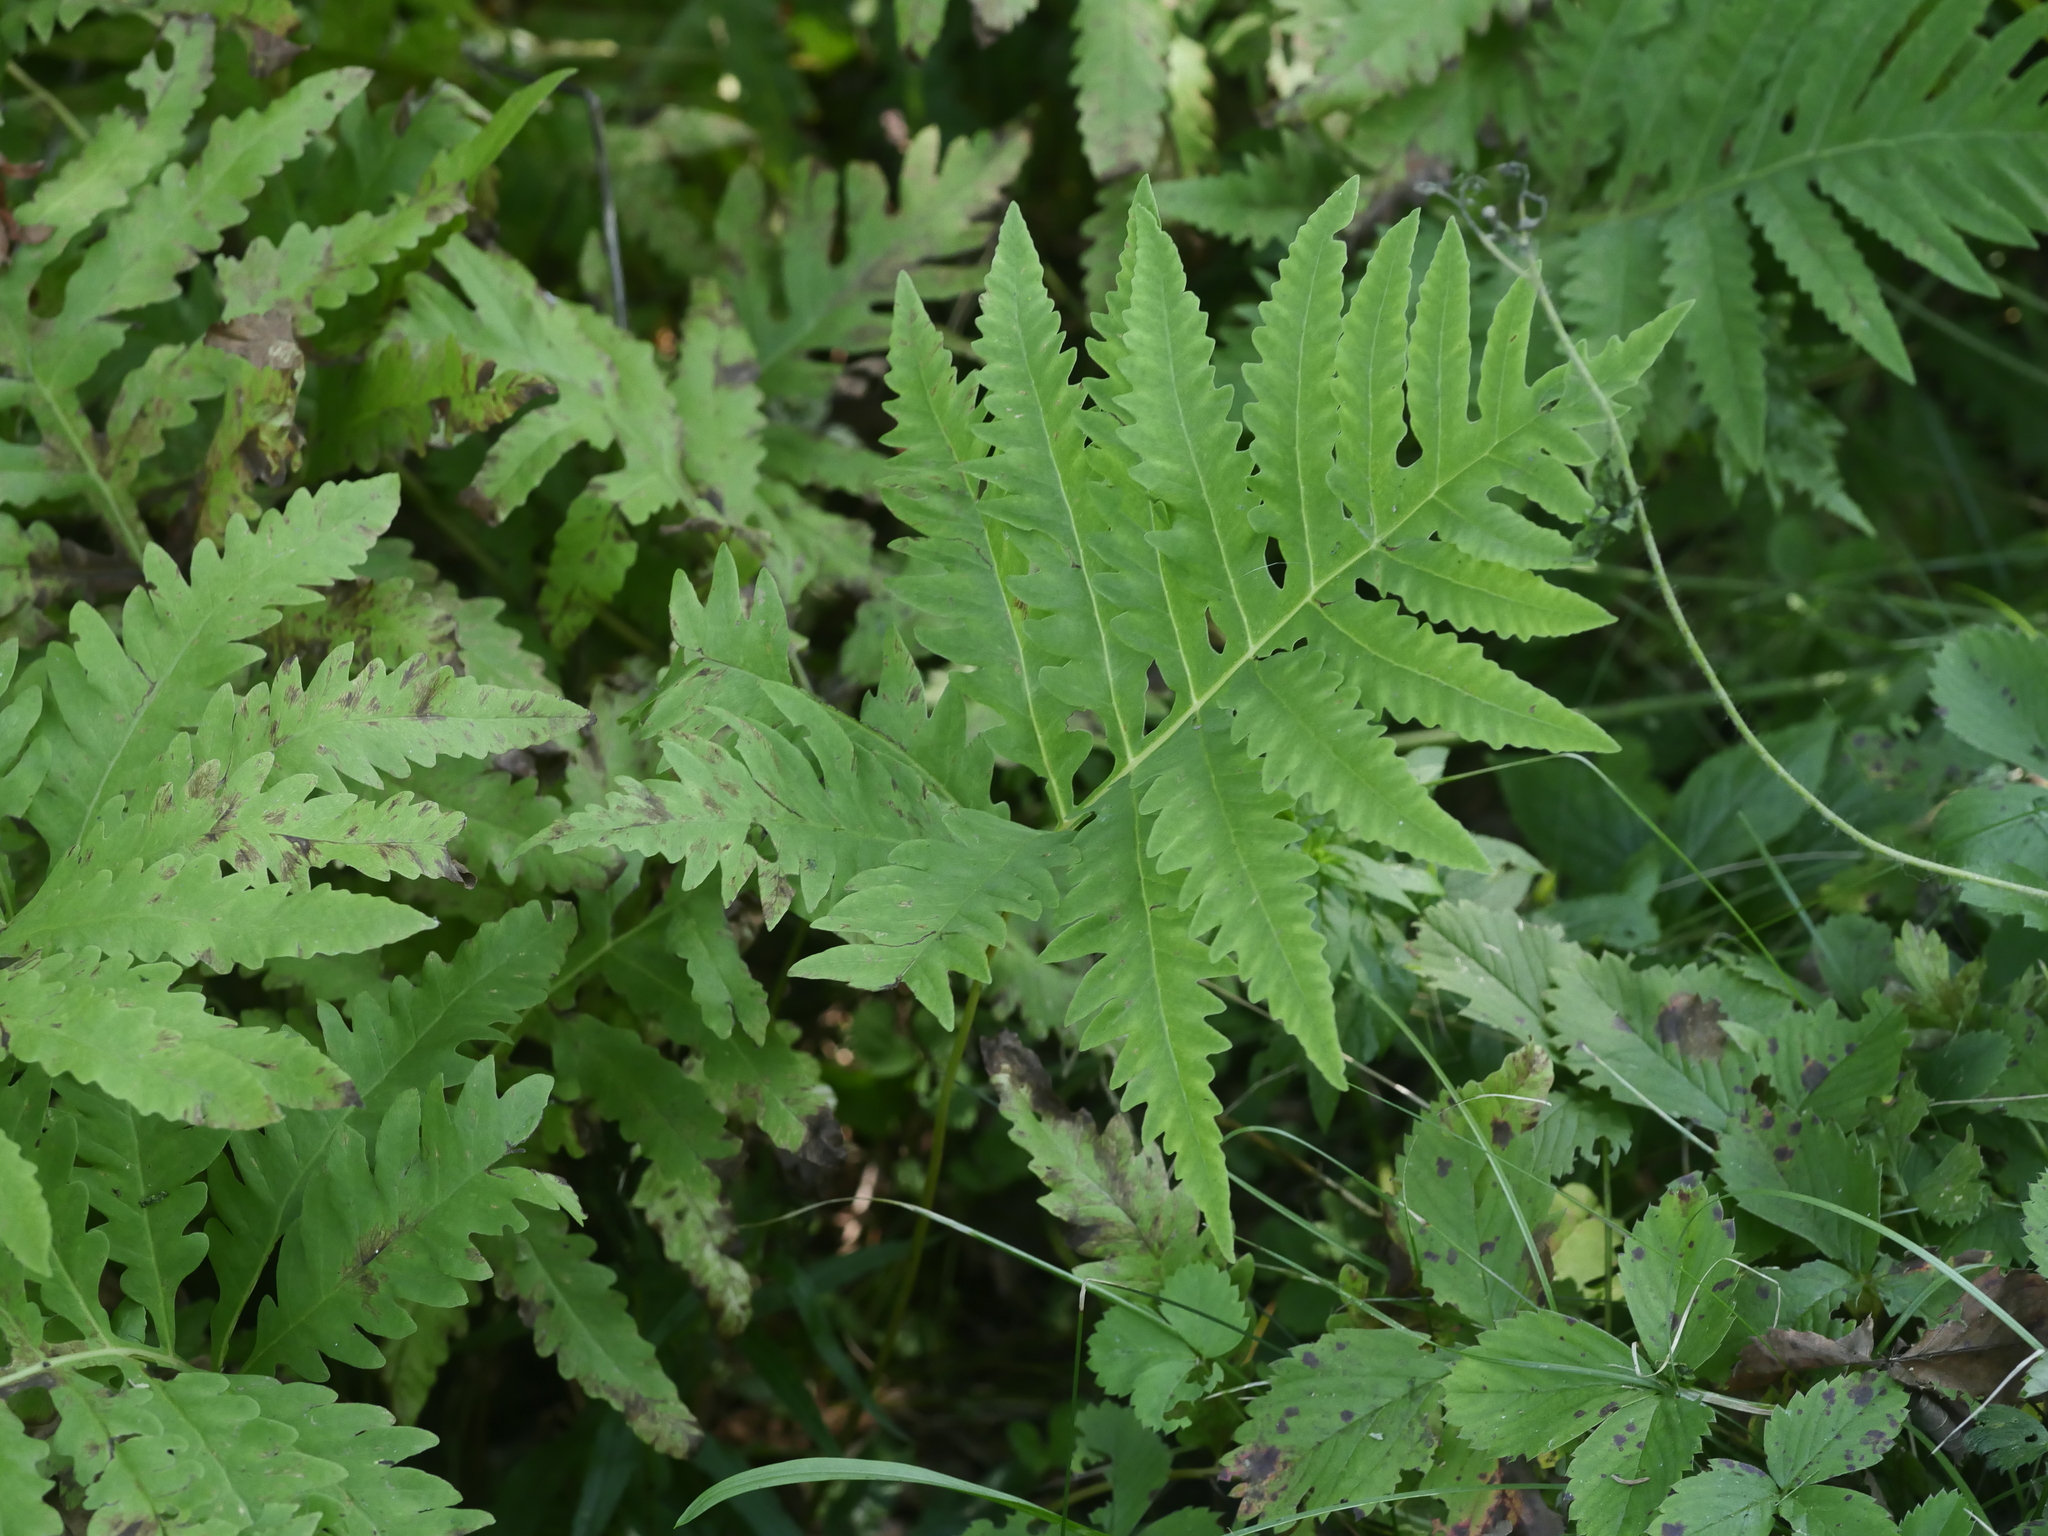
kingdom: Plantae
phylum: Tracheophyta
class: Polypodiopsida
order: Polypodiales
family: Onocleaceae
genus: Onoclea
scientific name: Onoclea sensibilis
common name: Sensitive fern
